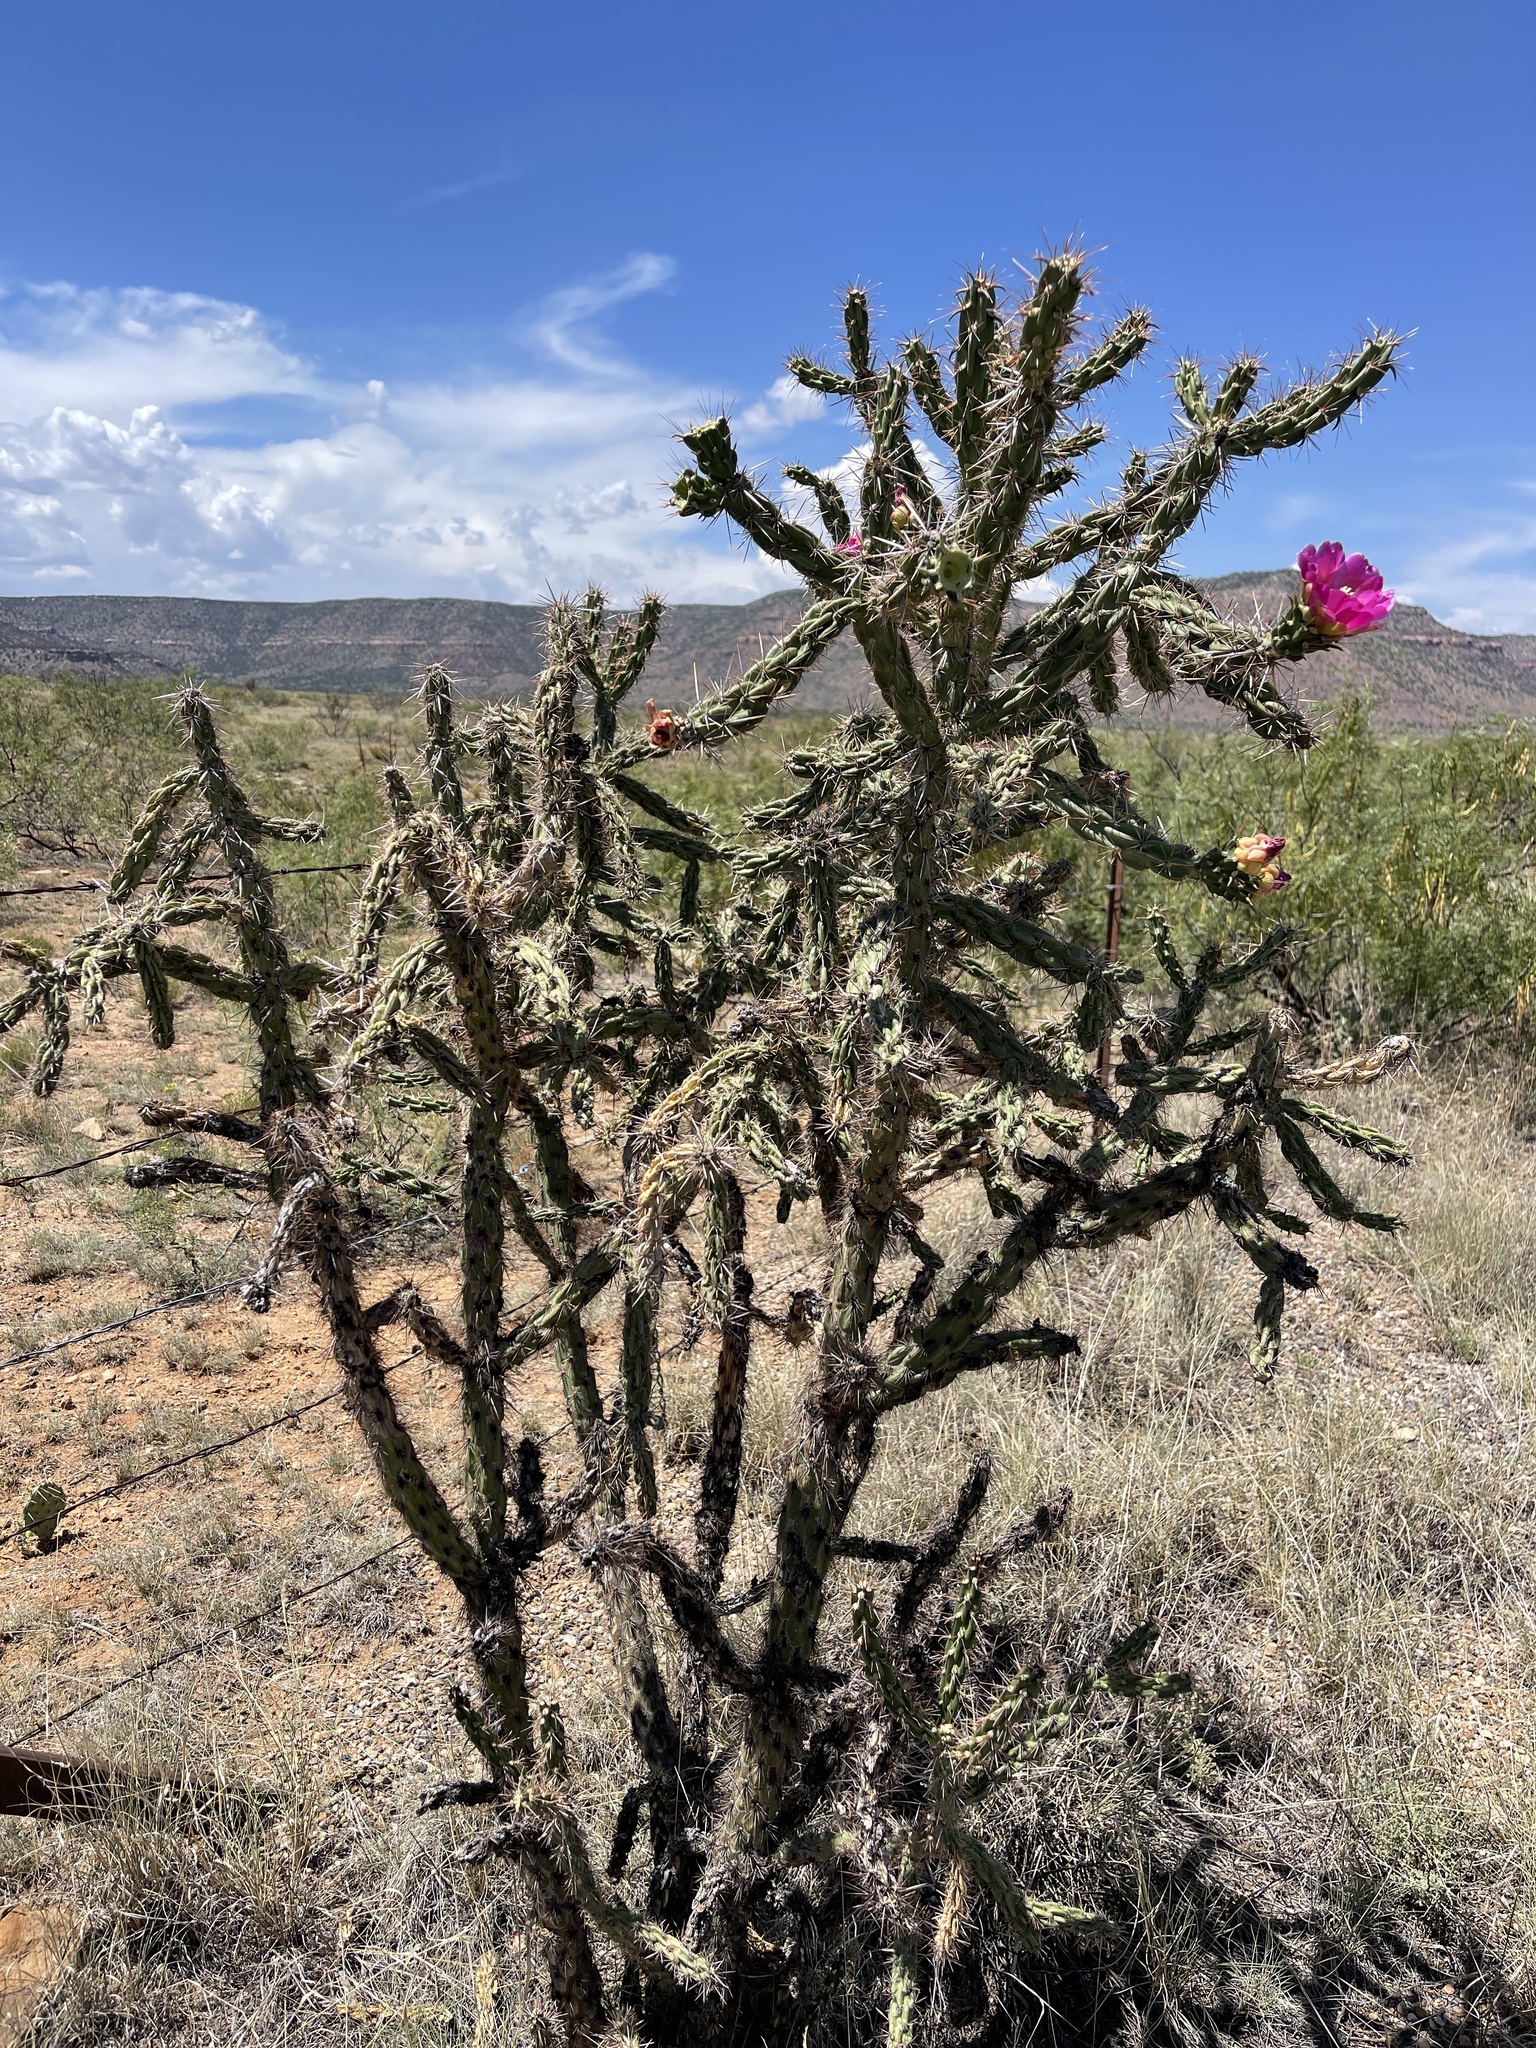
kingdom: Plantae
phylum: Tracheophyta
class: Magnoliopsida
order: Caryophyllales
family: Cactaceae
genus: Cylindropuntia
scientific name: Cylindropuntia imbricata
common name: Candelabrum cactus
